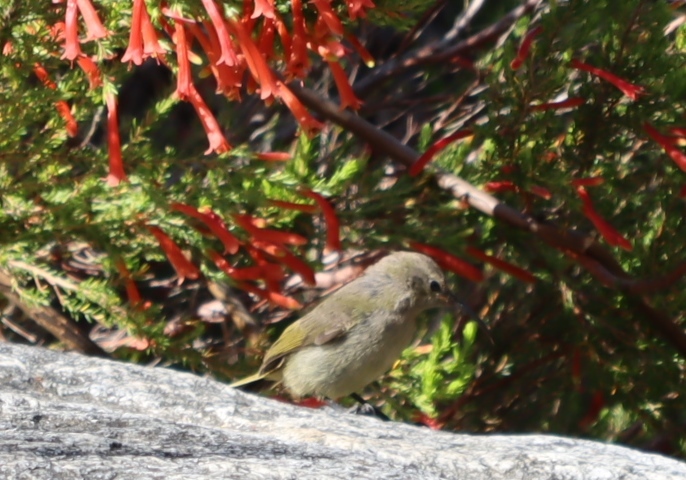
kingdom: Animalia
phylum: Chordata
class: Aves
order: Passeriformes
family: Nectariniidae
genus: Anthobaphes
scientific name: Anthobaphes violacea
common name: Orange-breasted sunbird
